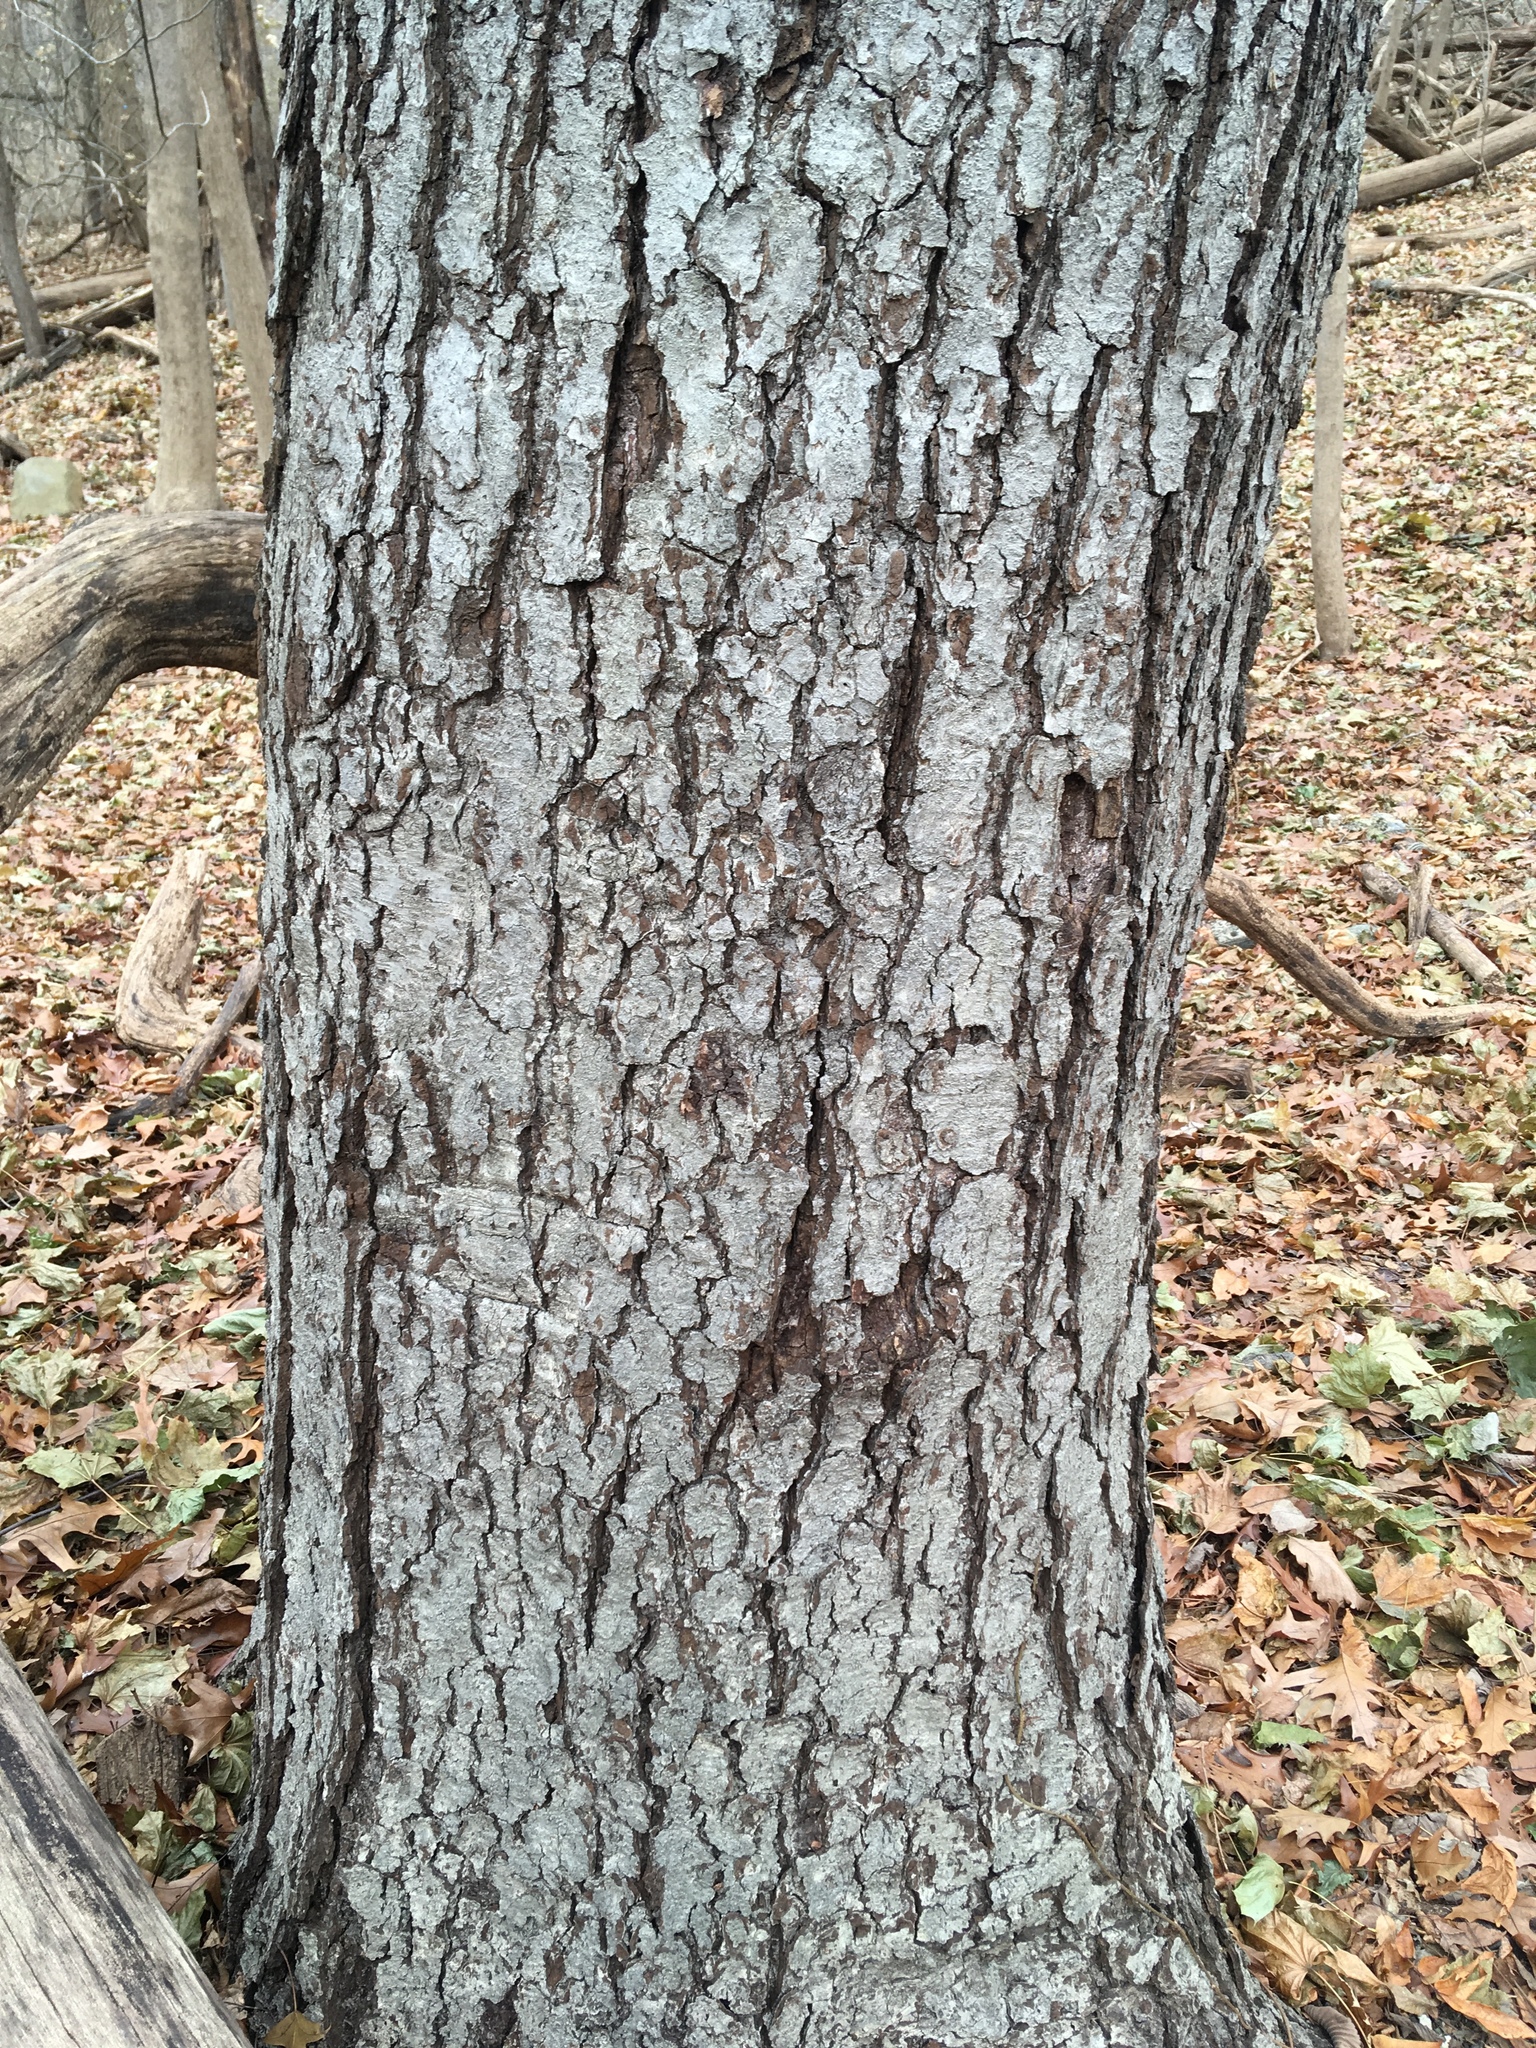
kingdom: Plantae
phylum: Tracheophyta
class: Magnoliopsida
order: Fagales
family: Betulaceae
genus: Betula
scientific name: Betula lenta
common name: Black birch
